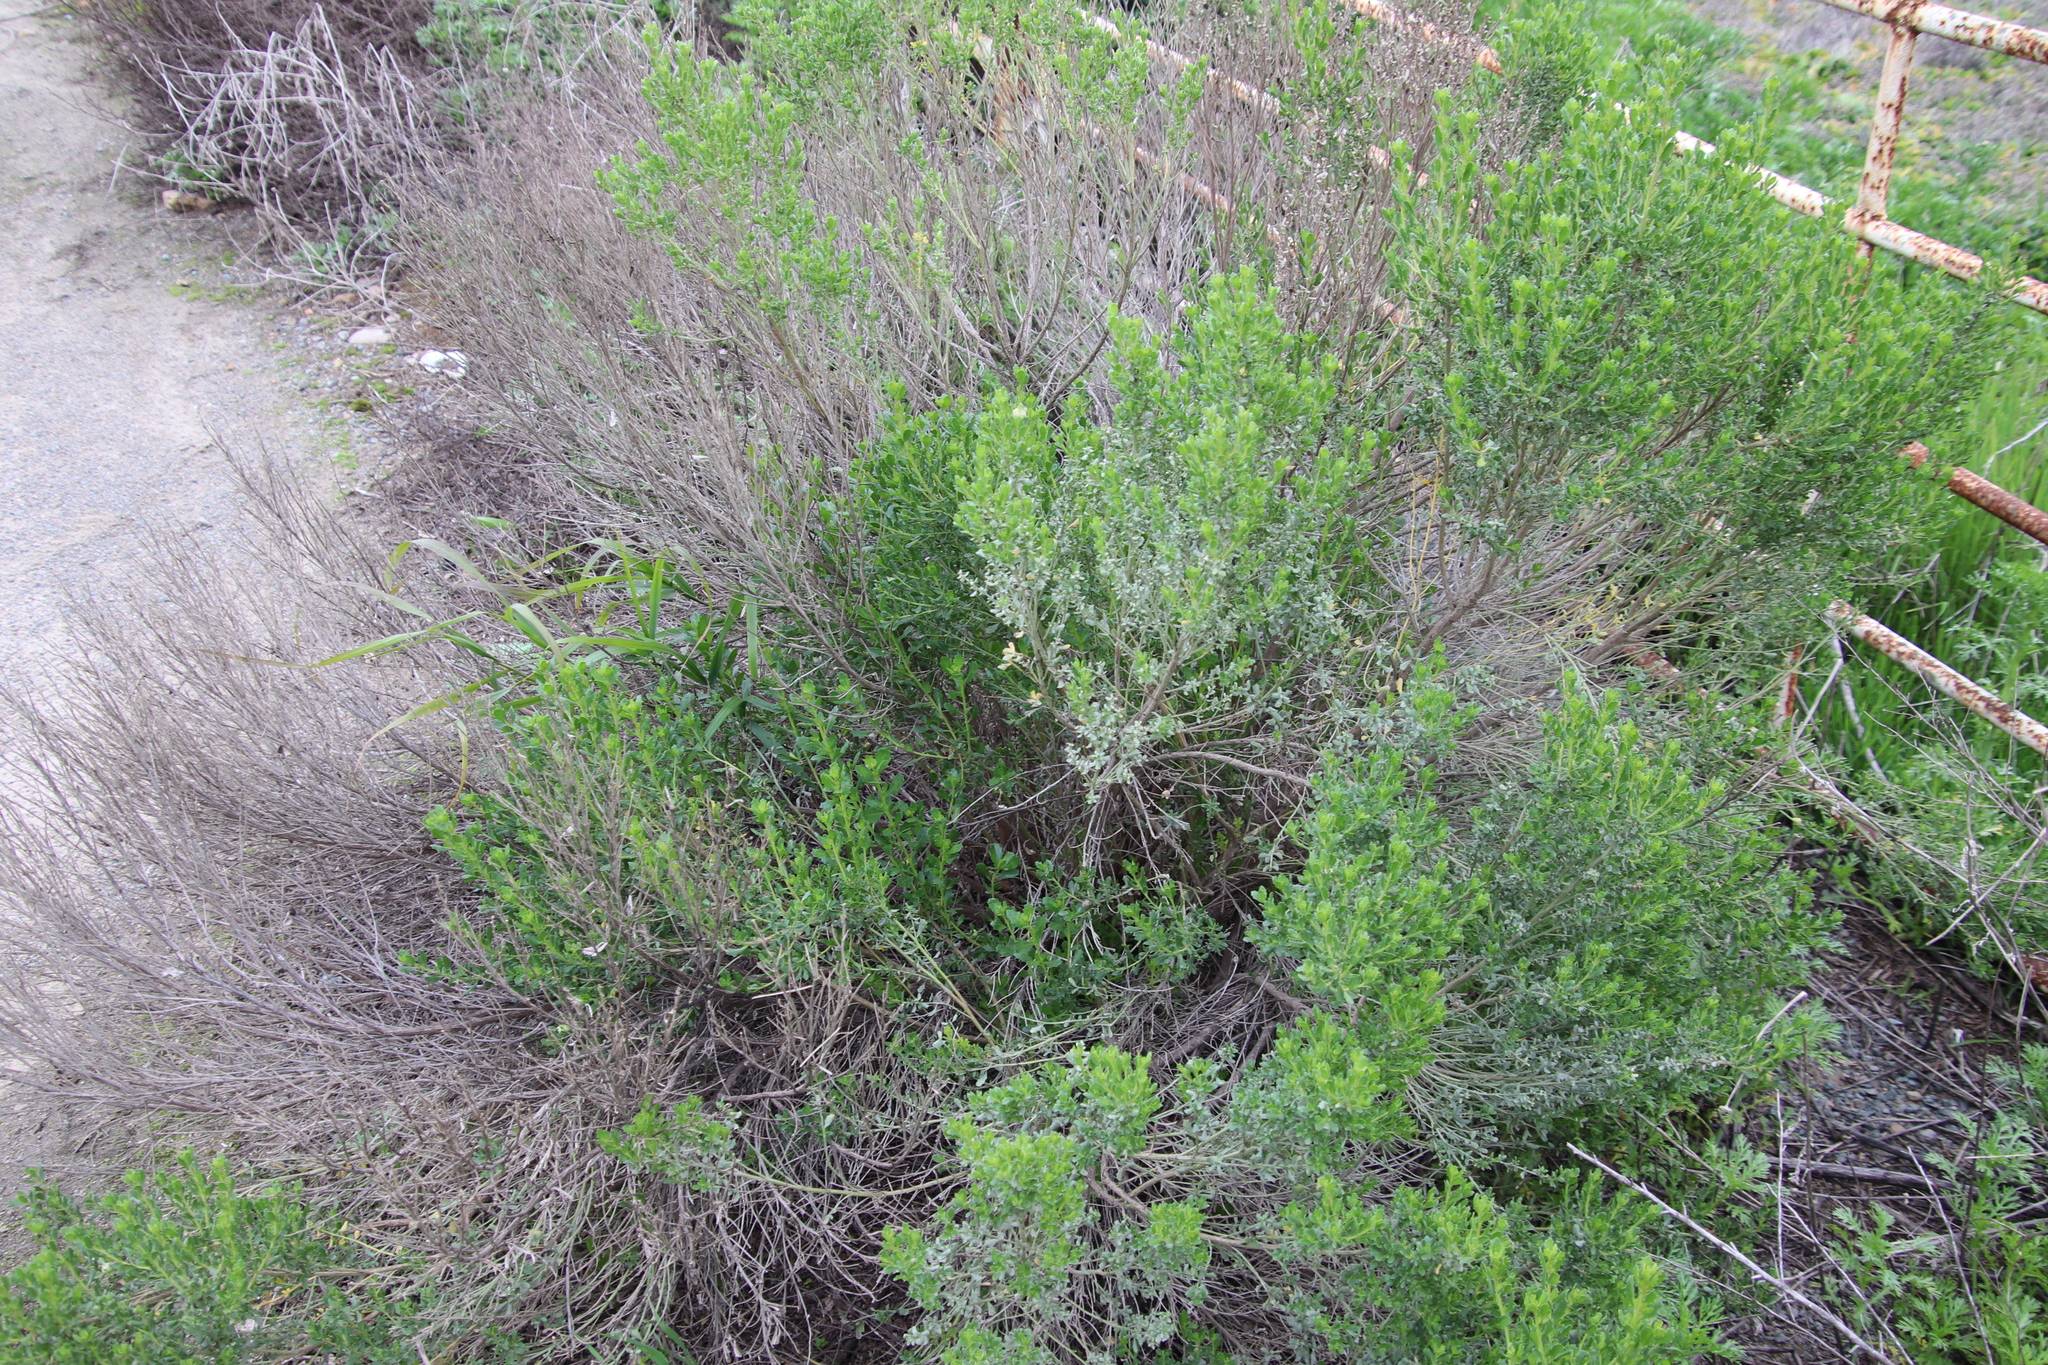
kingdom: Plantae
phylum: Tracheophyta
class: Magnoliopsida
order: Asterales
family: Asteraceae
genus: Baccharis
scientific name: Baccharis pilularis
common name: Coyotebrush
